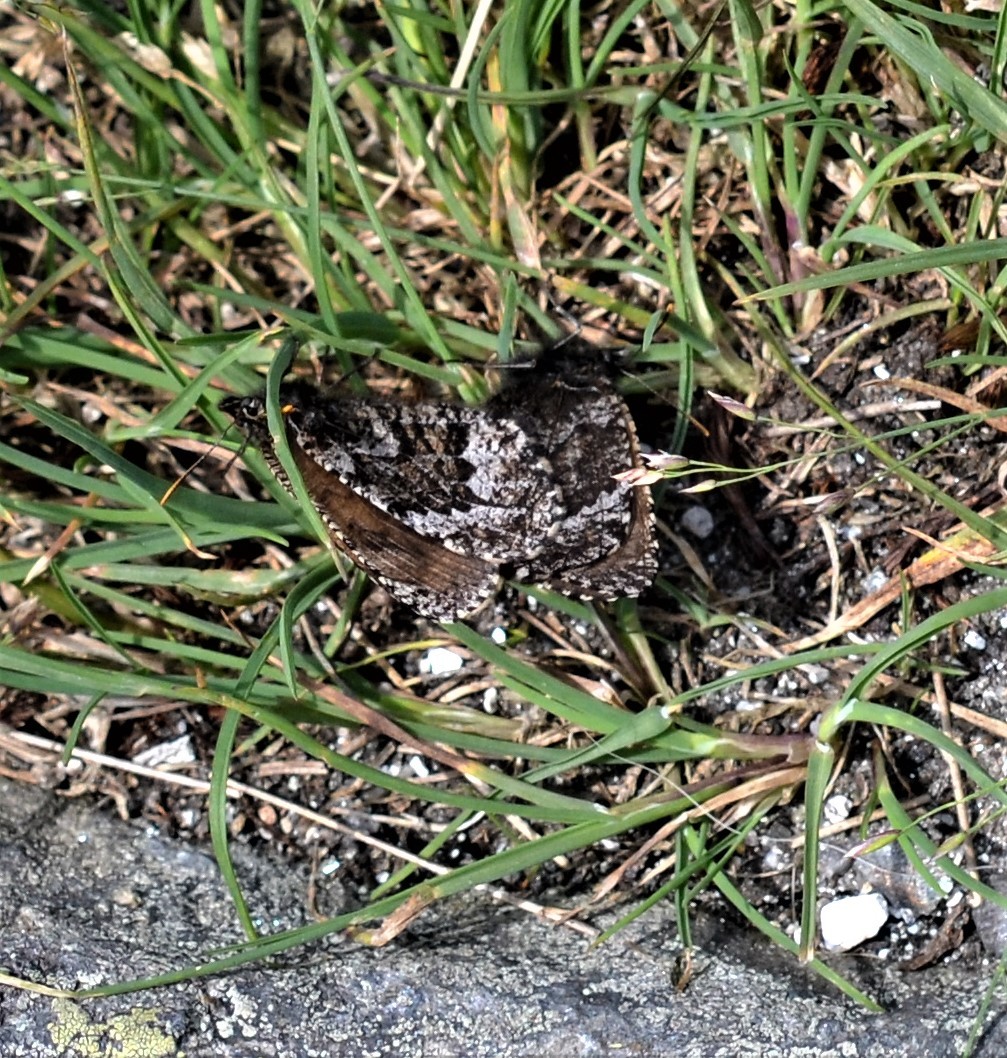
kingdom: Animalia
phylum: Arthropoda
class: Insecta
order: Lepidoptera
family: Nymphalidae
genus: Oeneis
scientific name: Oeneis semidea
